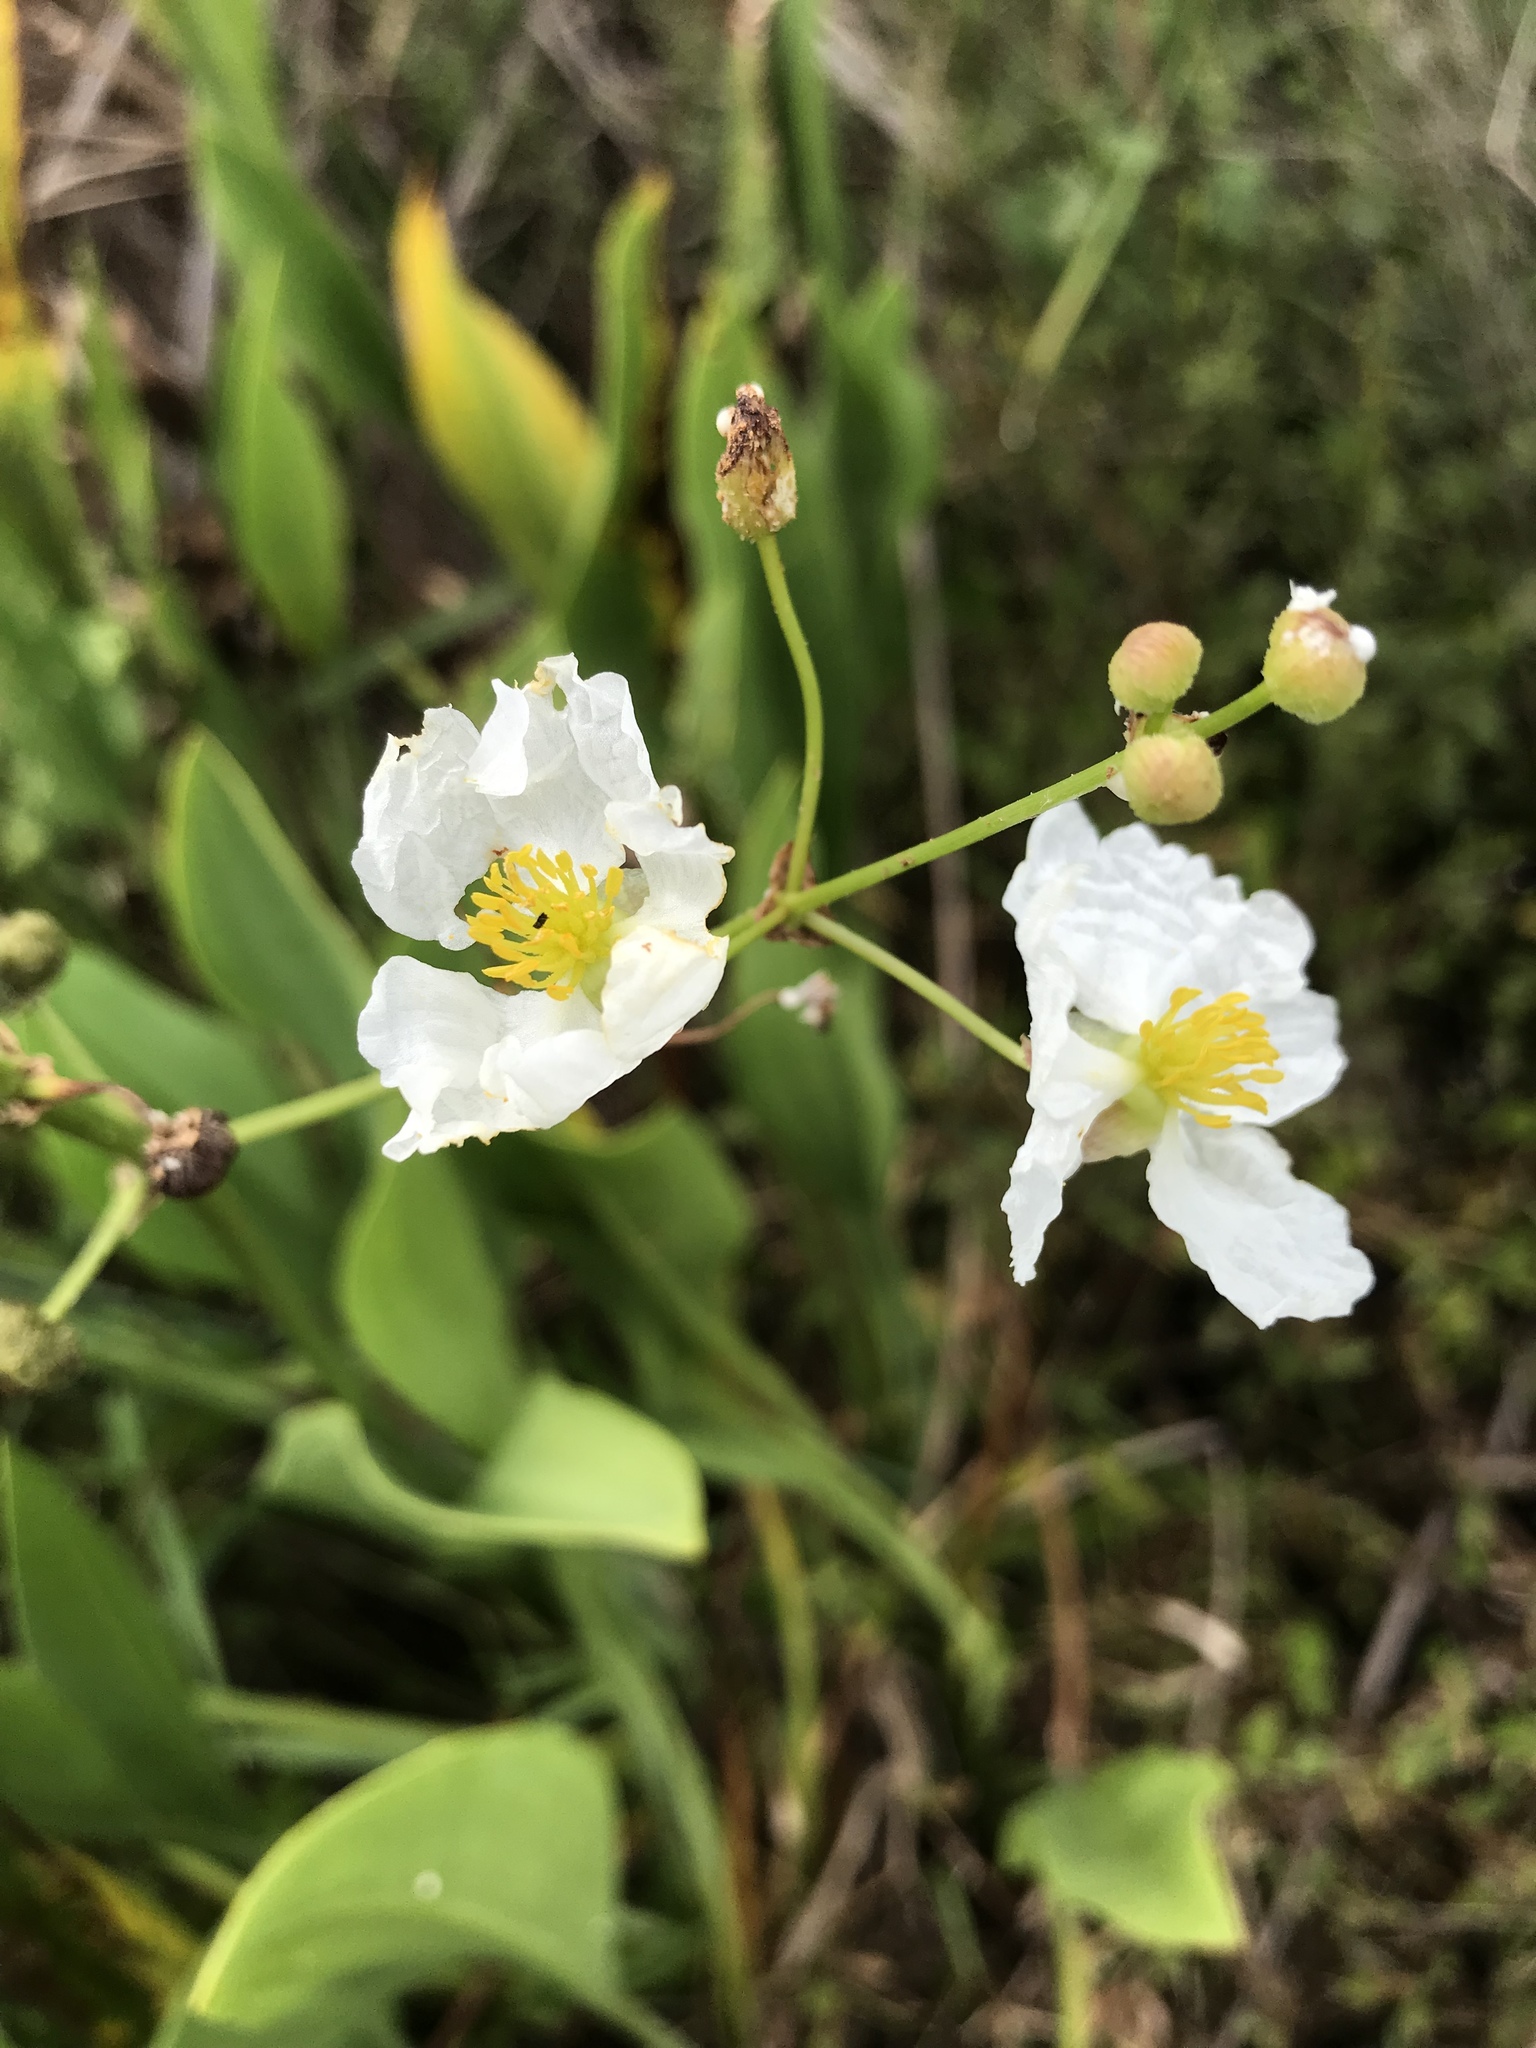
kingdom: Plantae
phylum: Tracheophyta
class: Liliopsida
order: Alismatales
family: Alismataceae
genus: Sagittaria
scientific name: Sagittaria lancifolia
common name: Lance-leaf arrowhead
